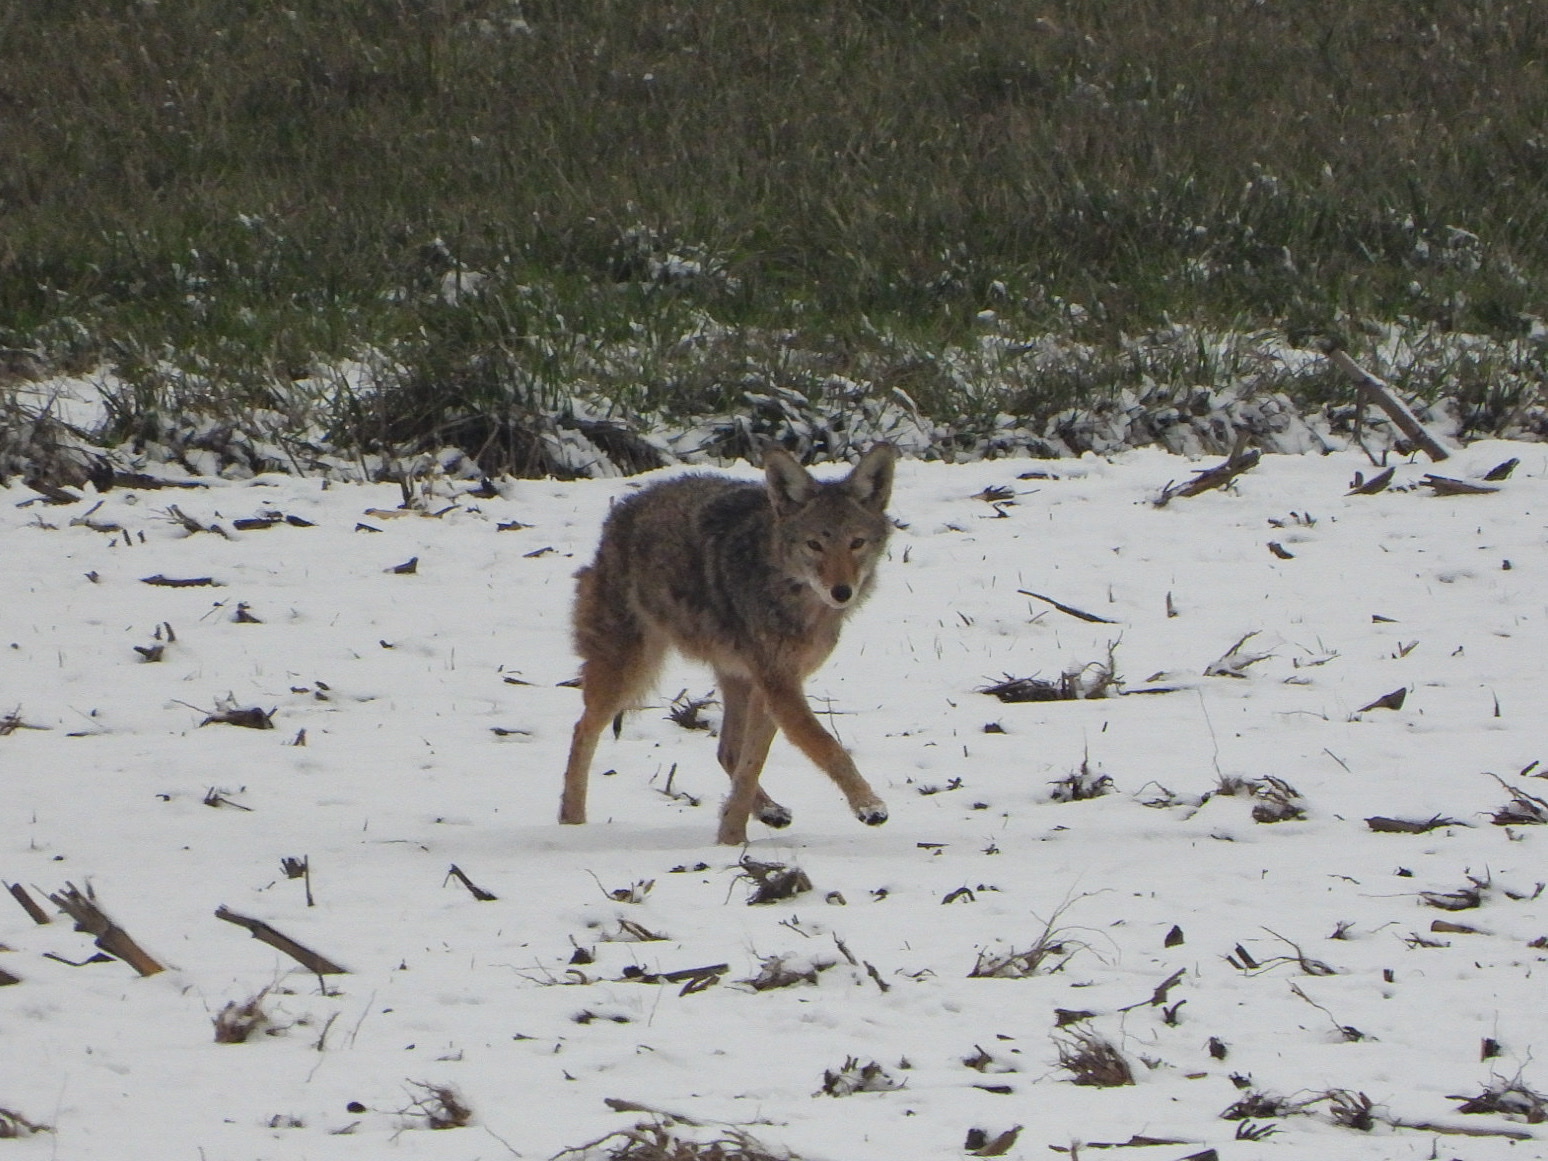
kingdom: Animalia
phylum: Chordata
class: Mammalia
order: Carnivora
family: Canidae
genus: Canis
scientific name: Canis latrans
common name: Coyote
